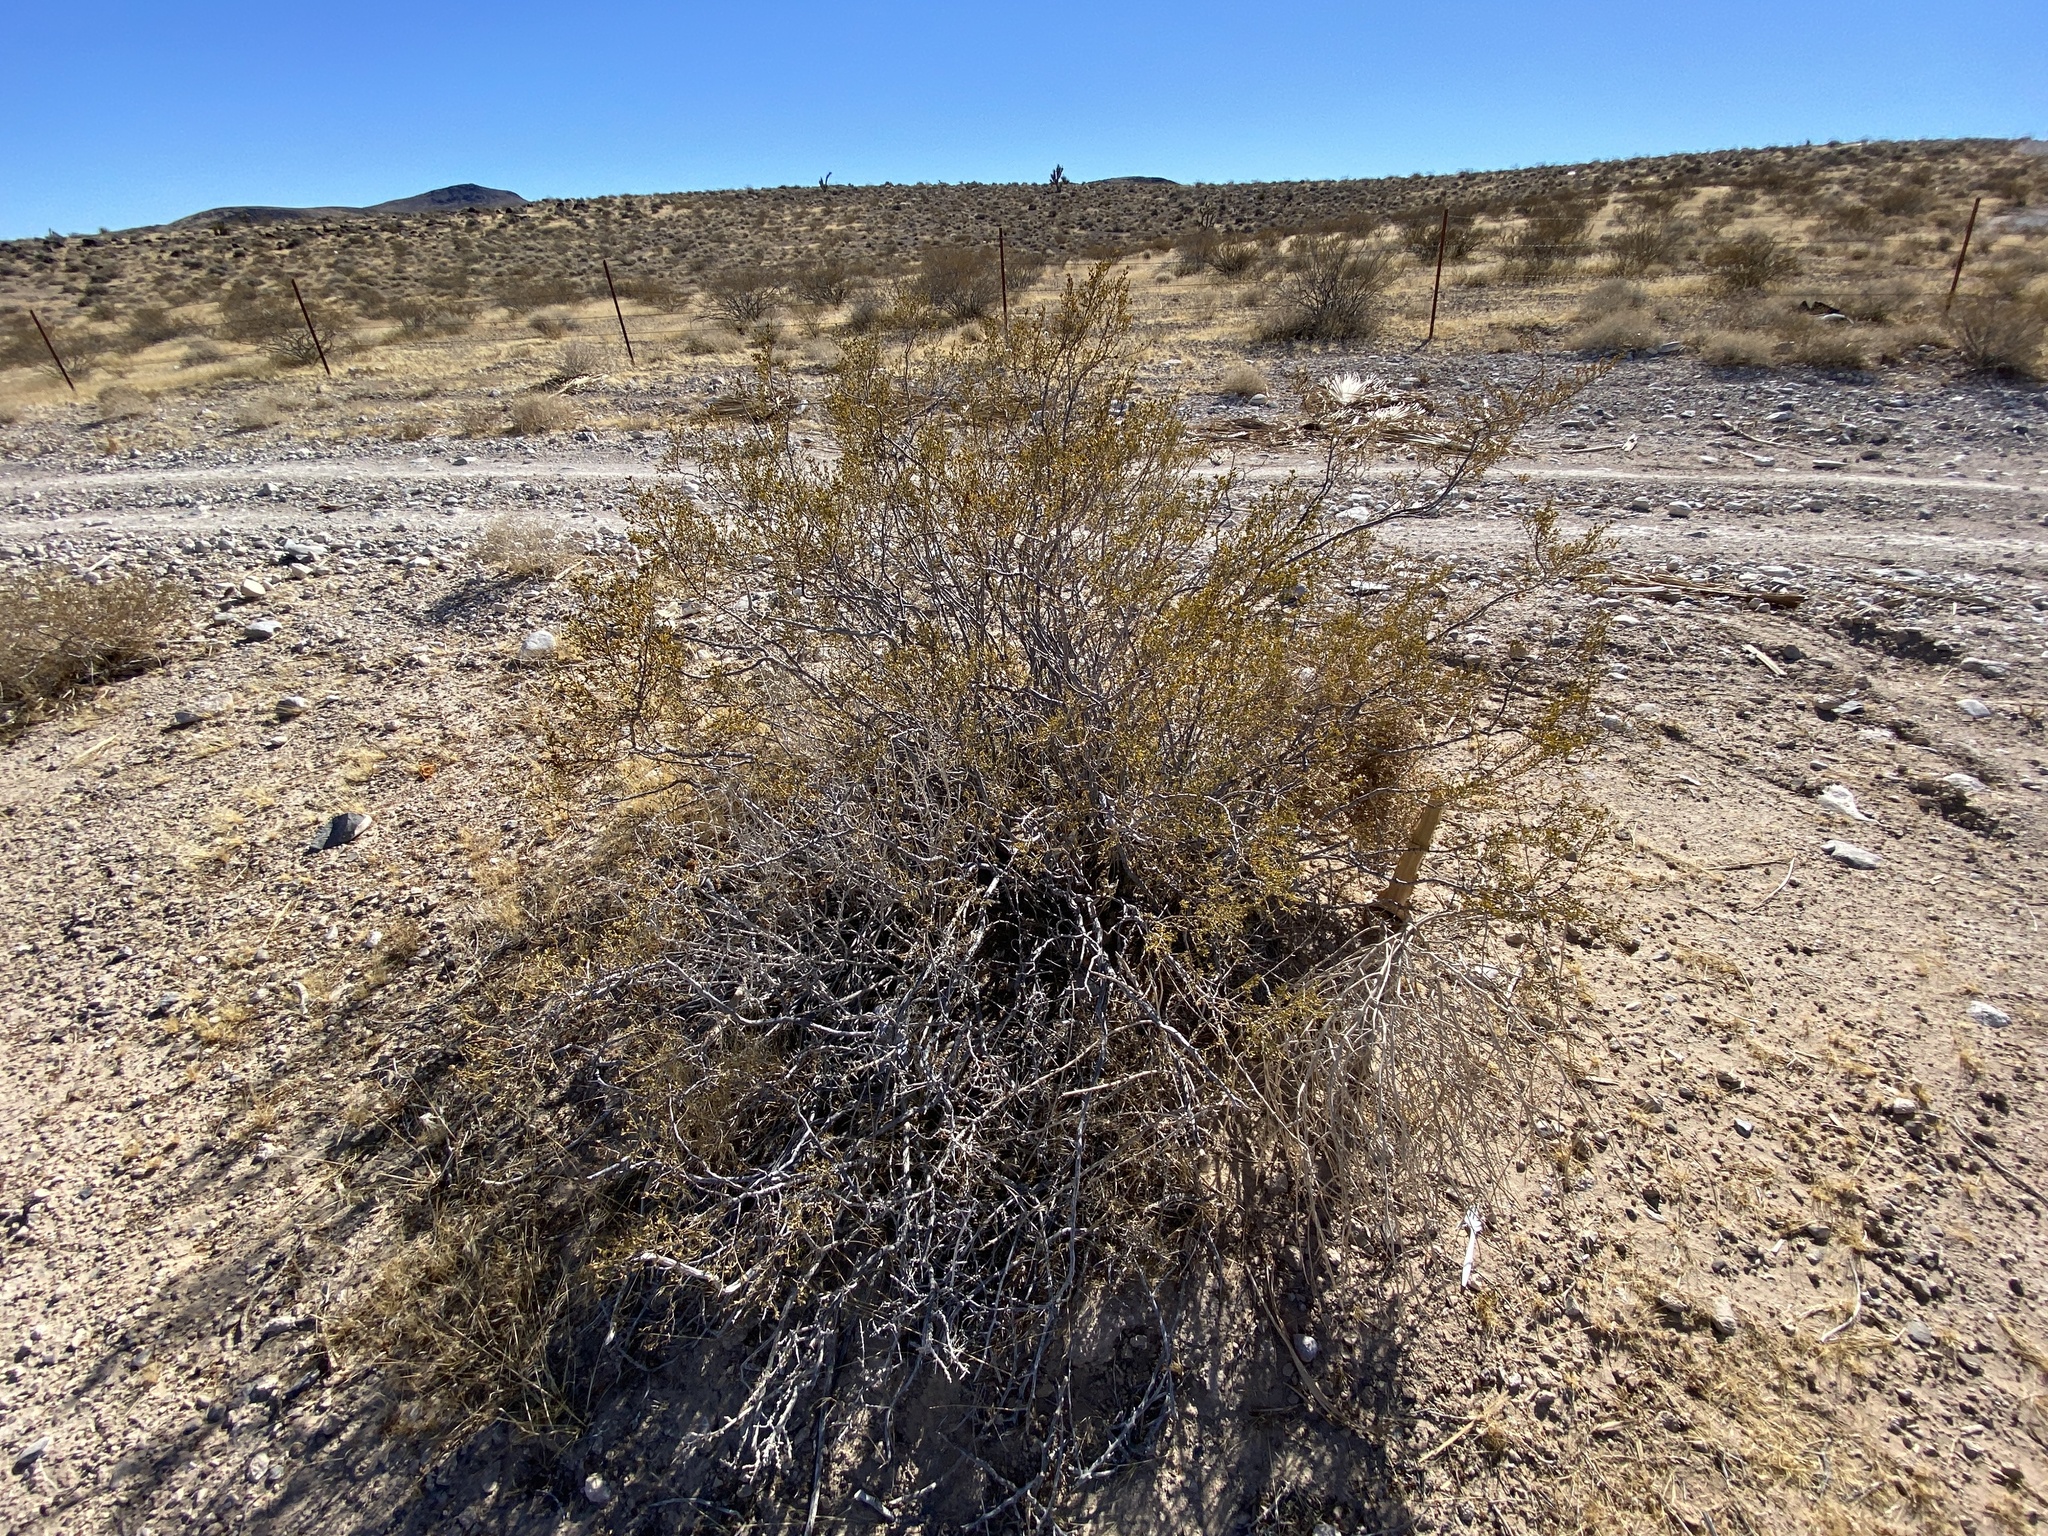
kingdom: Plantae
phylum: Tracheophyta
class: Magnoliopsida
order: Zygophyllales
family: Zygophyllaceae
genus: Larrea
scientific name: Larrea tridentata
